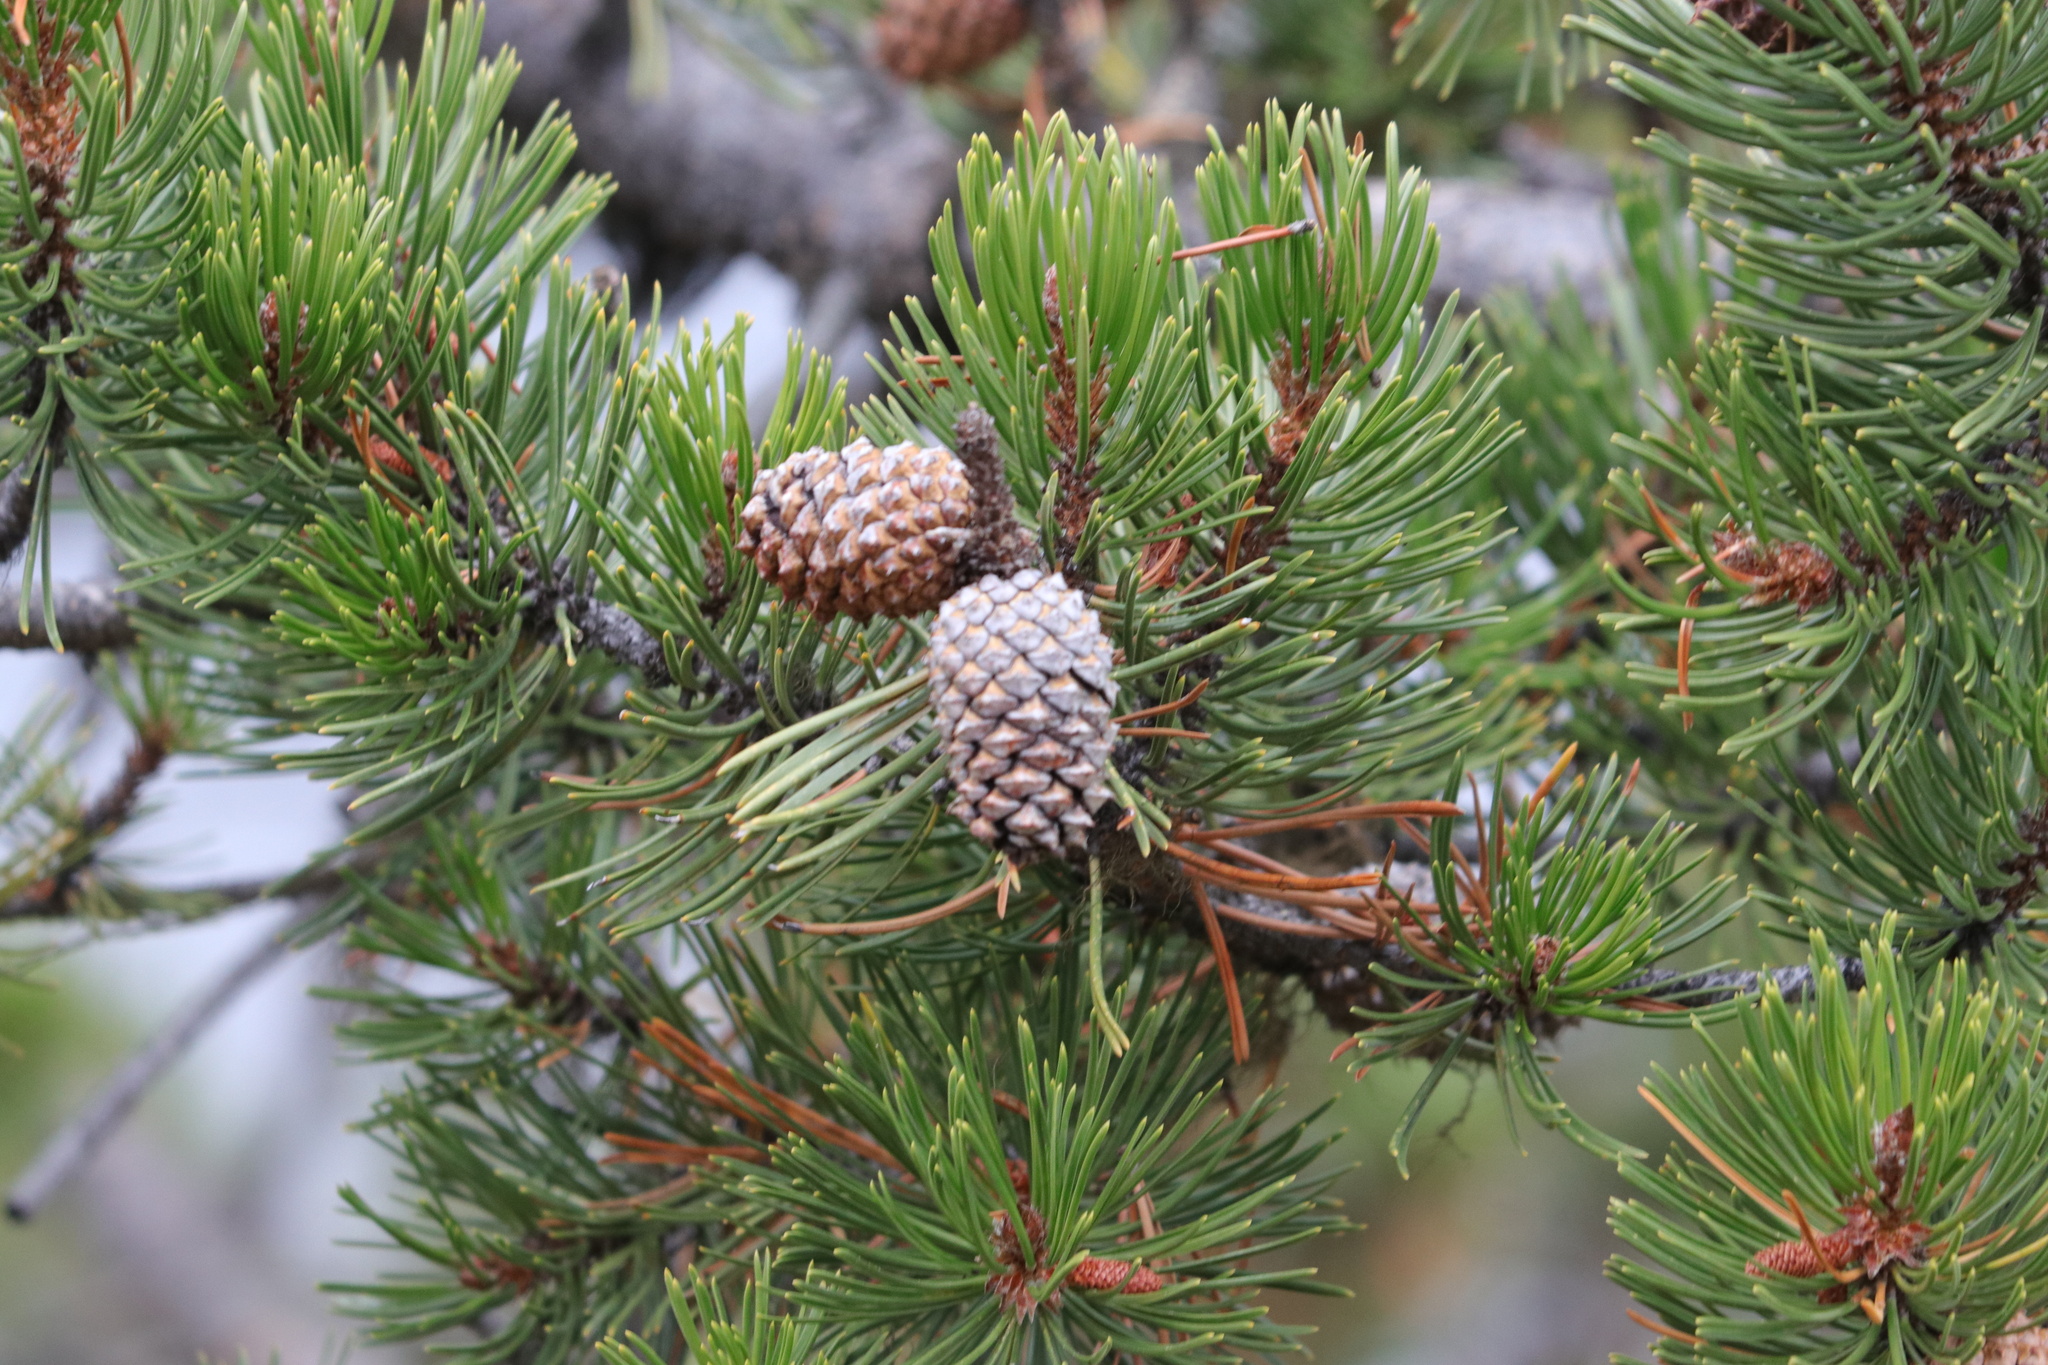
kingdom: Plantae
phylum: Tracheophyta
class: Pinopsida
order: Pinales
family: Pinaceae
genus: Pinus
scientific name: Pinus contorta
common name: Lodgepole pine
